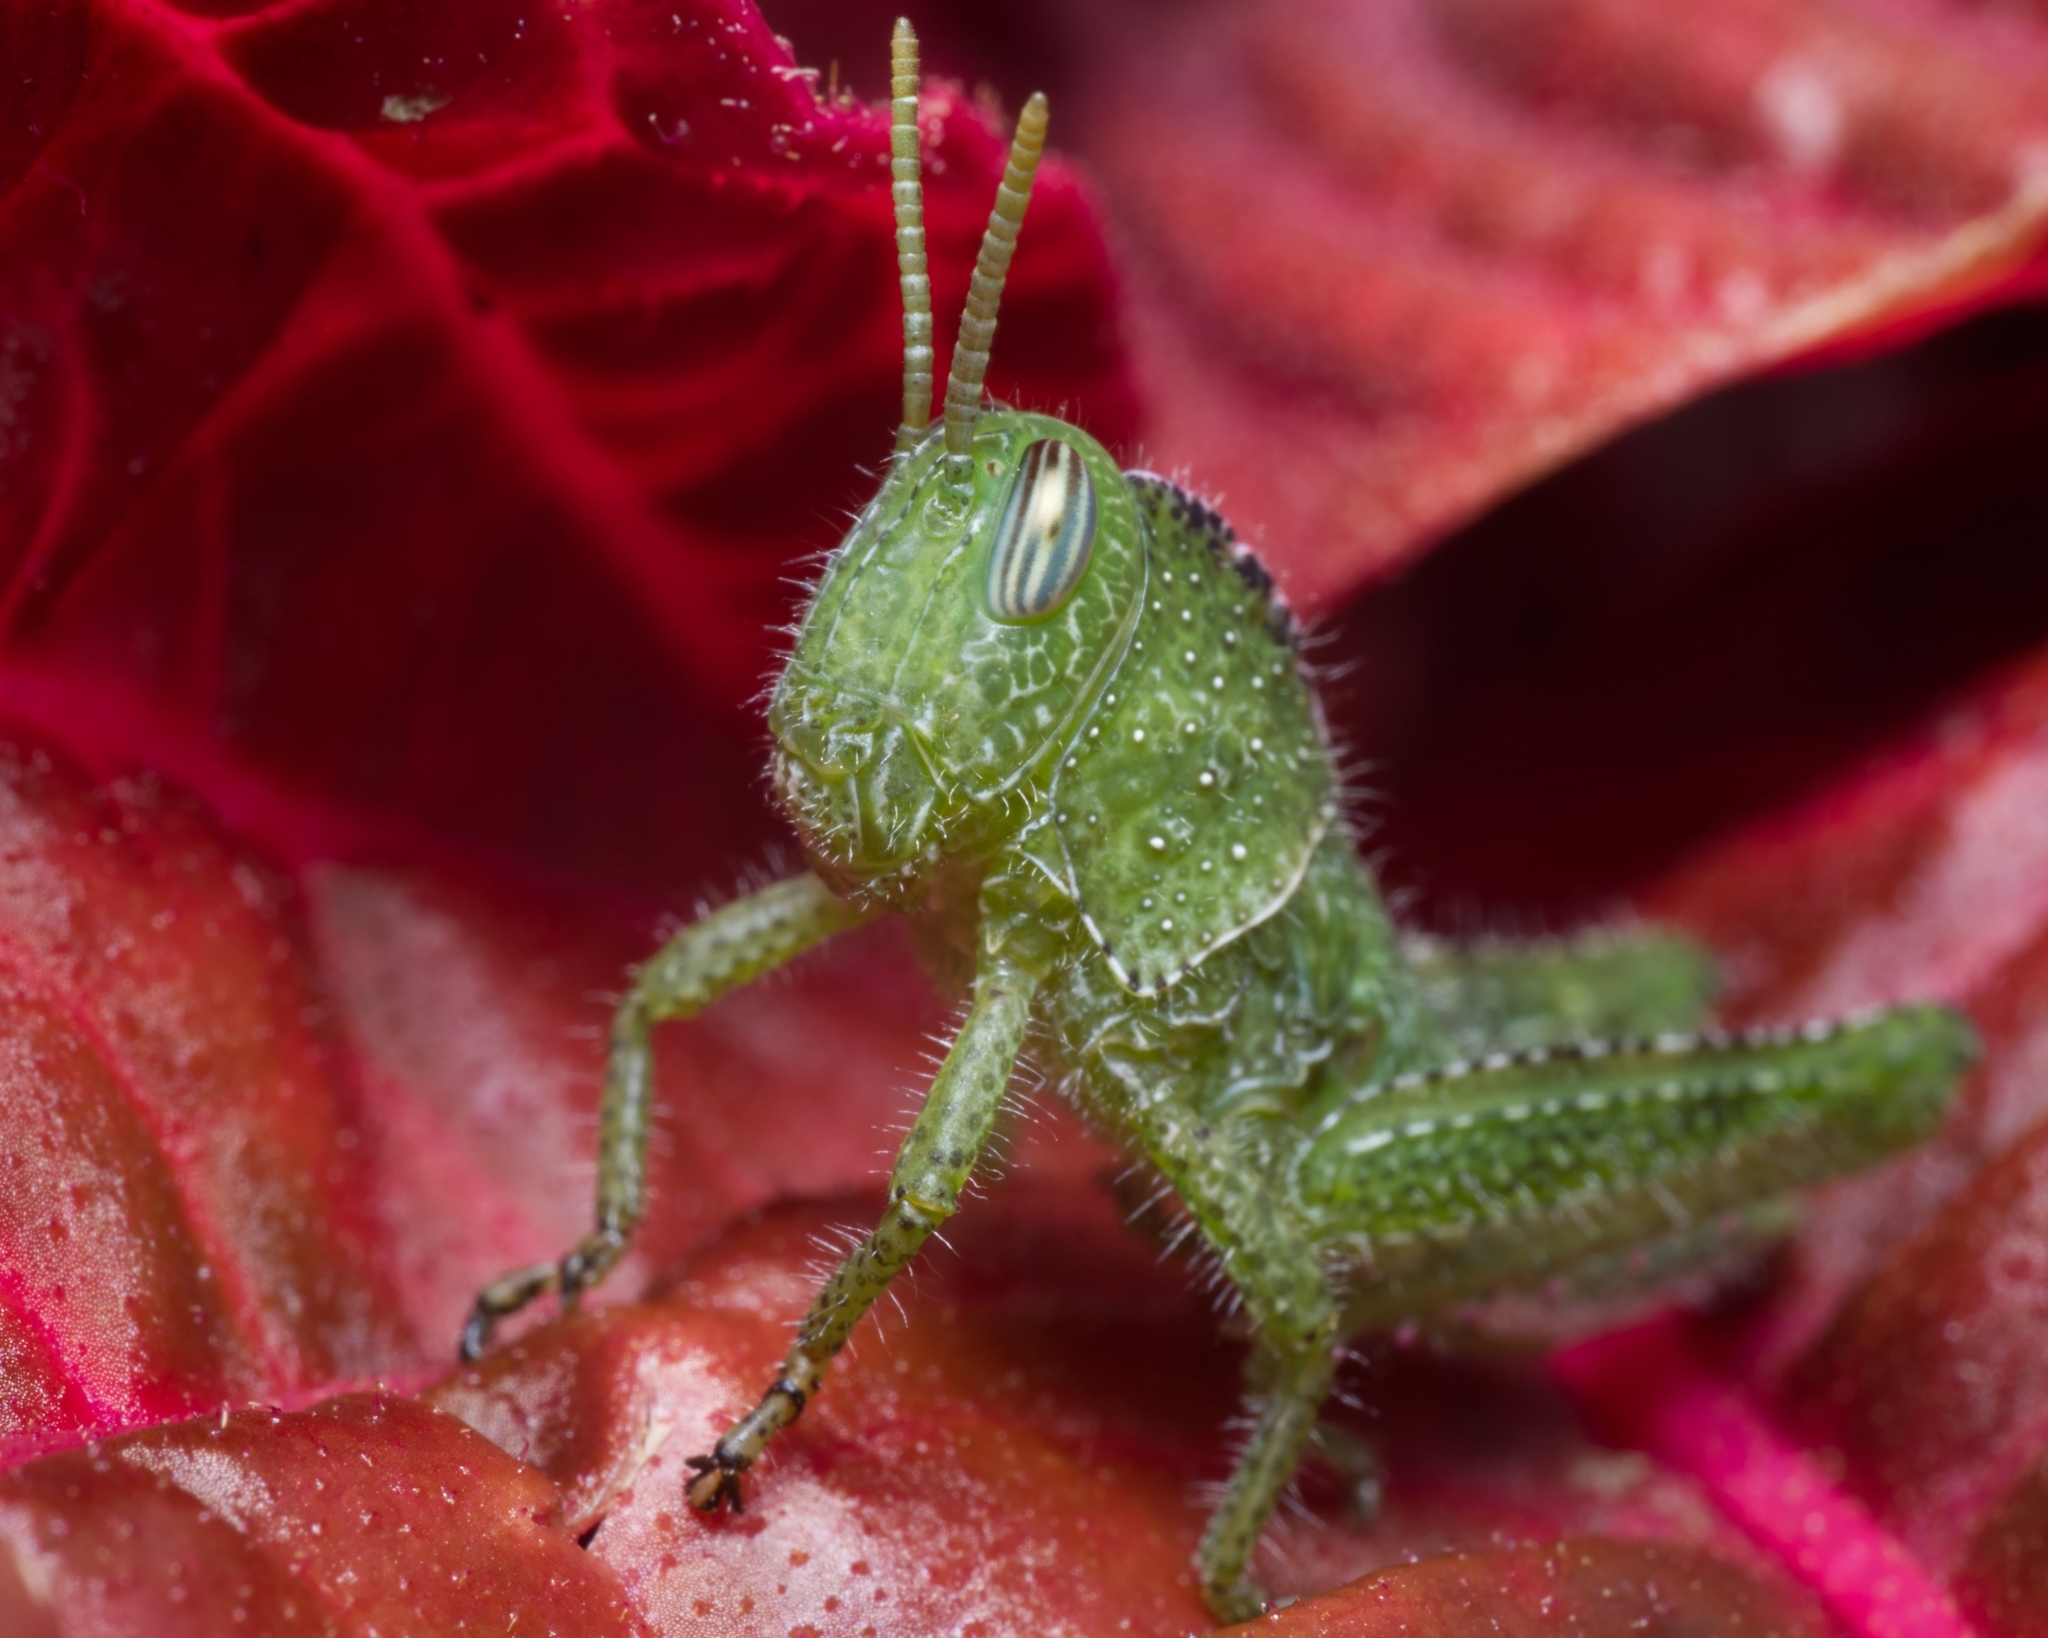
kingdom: Animalia
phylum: Arthropoda
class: Insecta
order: Orthoptera
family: Acrididae
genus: Acanthacris
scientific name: Acanthacris ruficornis
